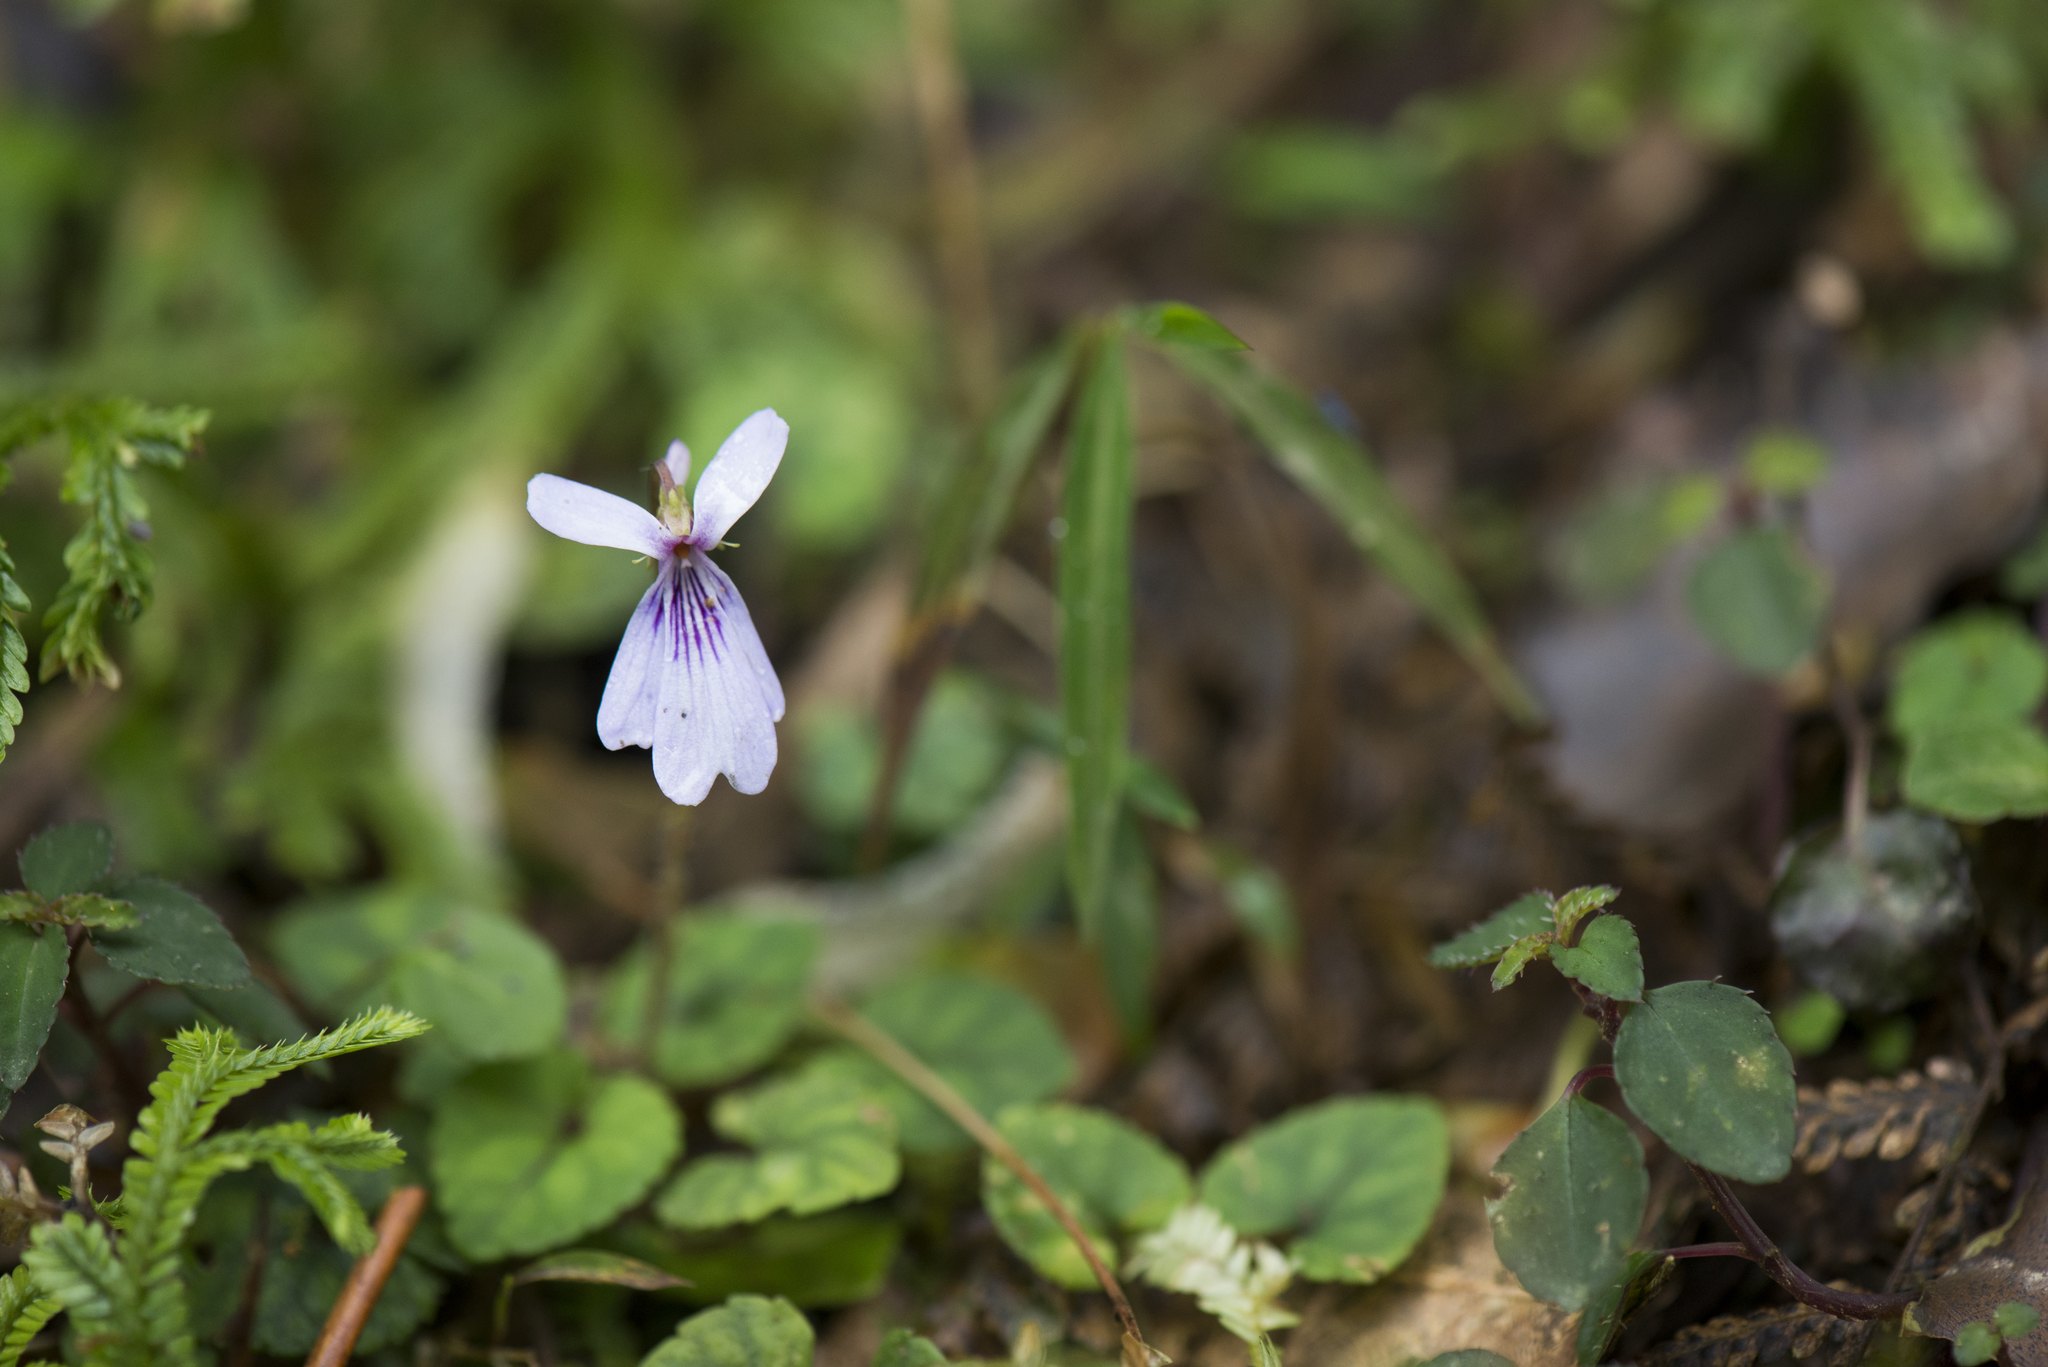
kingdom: Plantae
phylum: Tracheophyta
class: Magnoliopsida
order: Malpighiales
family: Violaceae
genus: Viola
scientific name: Viola formosana
